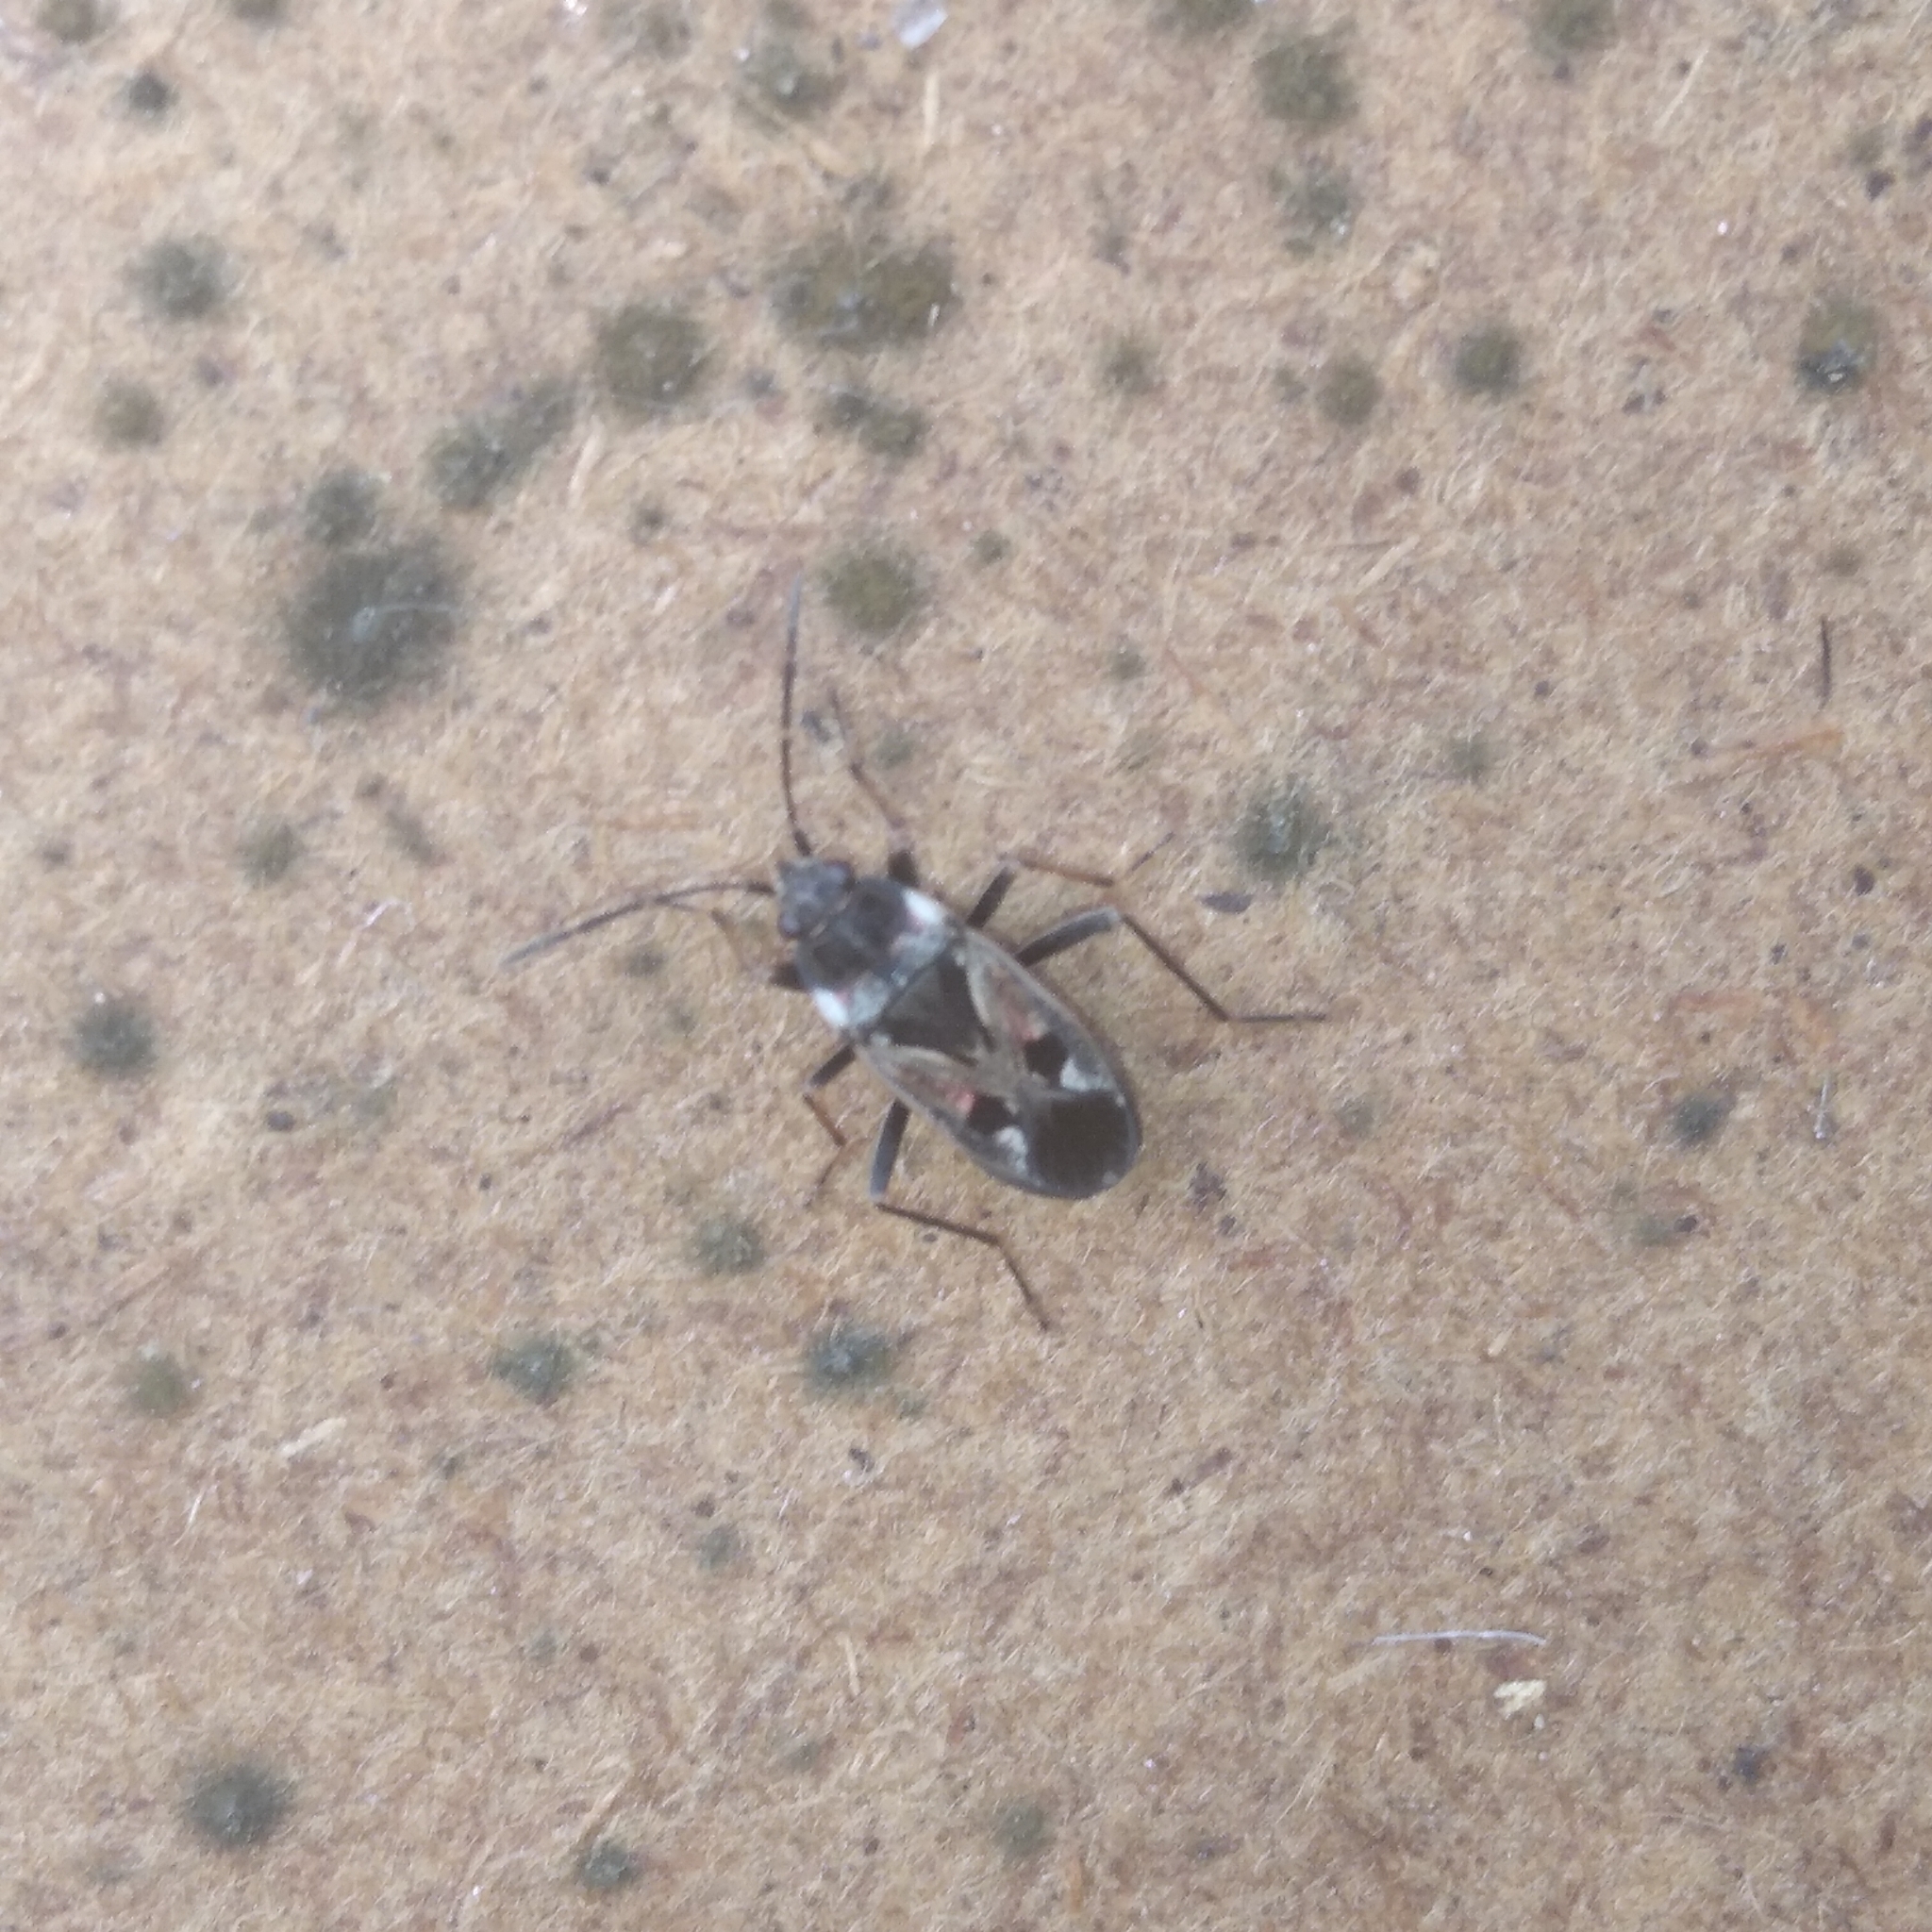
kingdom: Animalia
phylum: Arthropoda
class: Insecta
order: Hemiptera
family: Rhyparochromidae
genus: Rhyparochromus
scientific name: Rhyparochromus vulgaris
